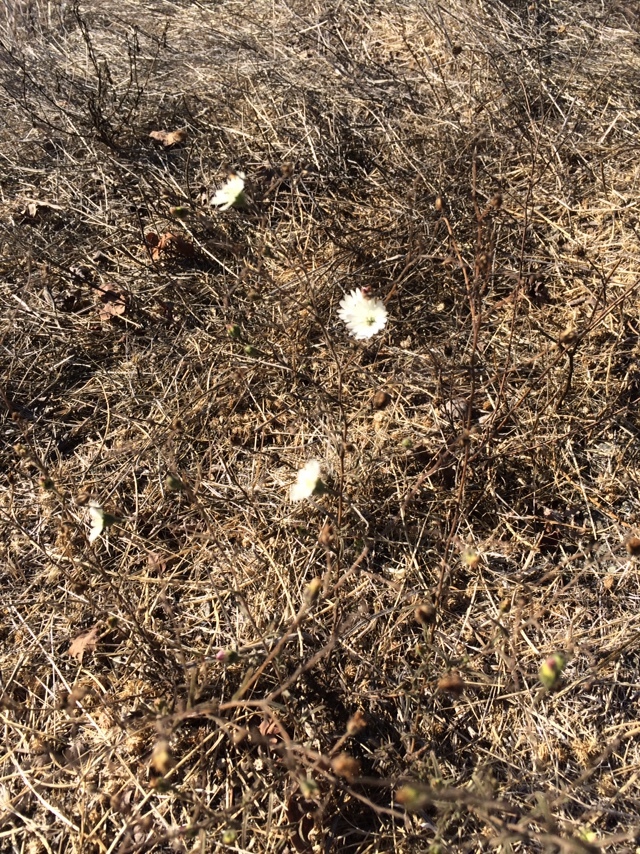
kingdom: Plantae
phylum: Tracheophyta
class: Magnoliopsida
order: Asterales
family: Asteraceae
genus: Hemizonia
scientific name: Hemizonia congesta
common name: Hayfield tarweed
